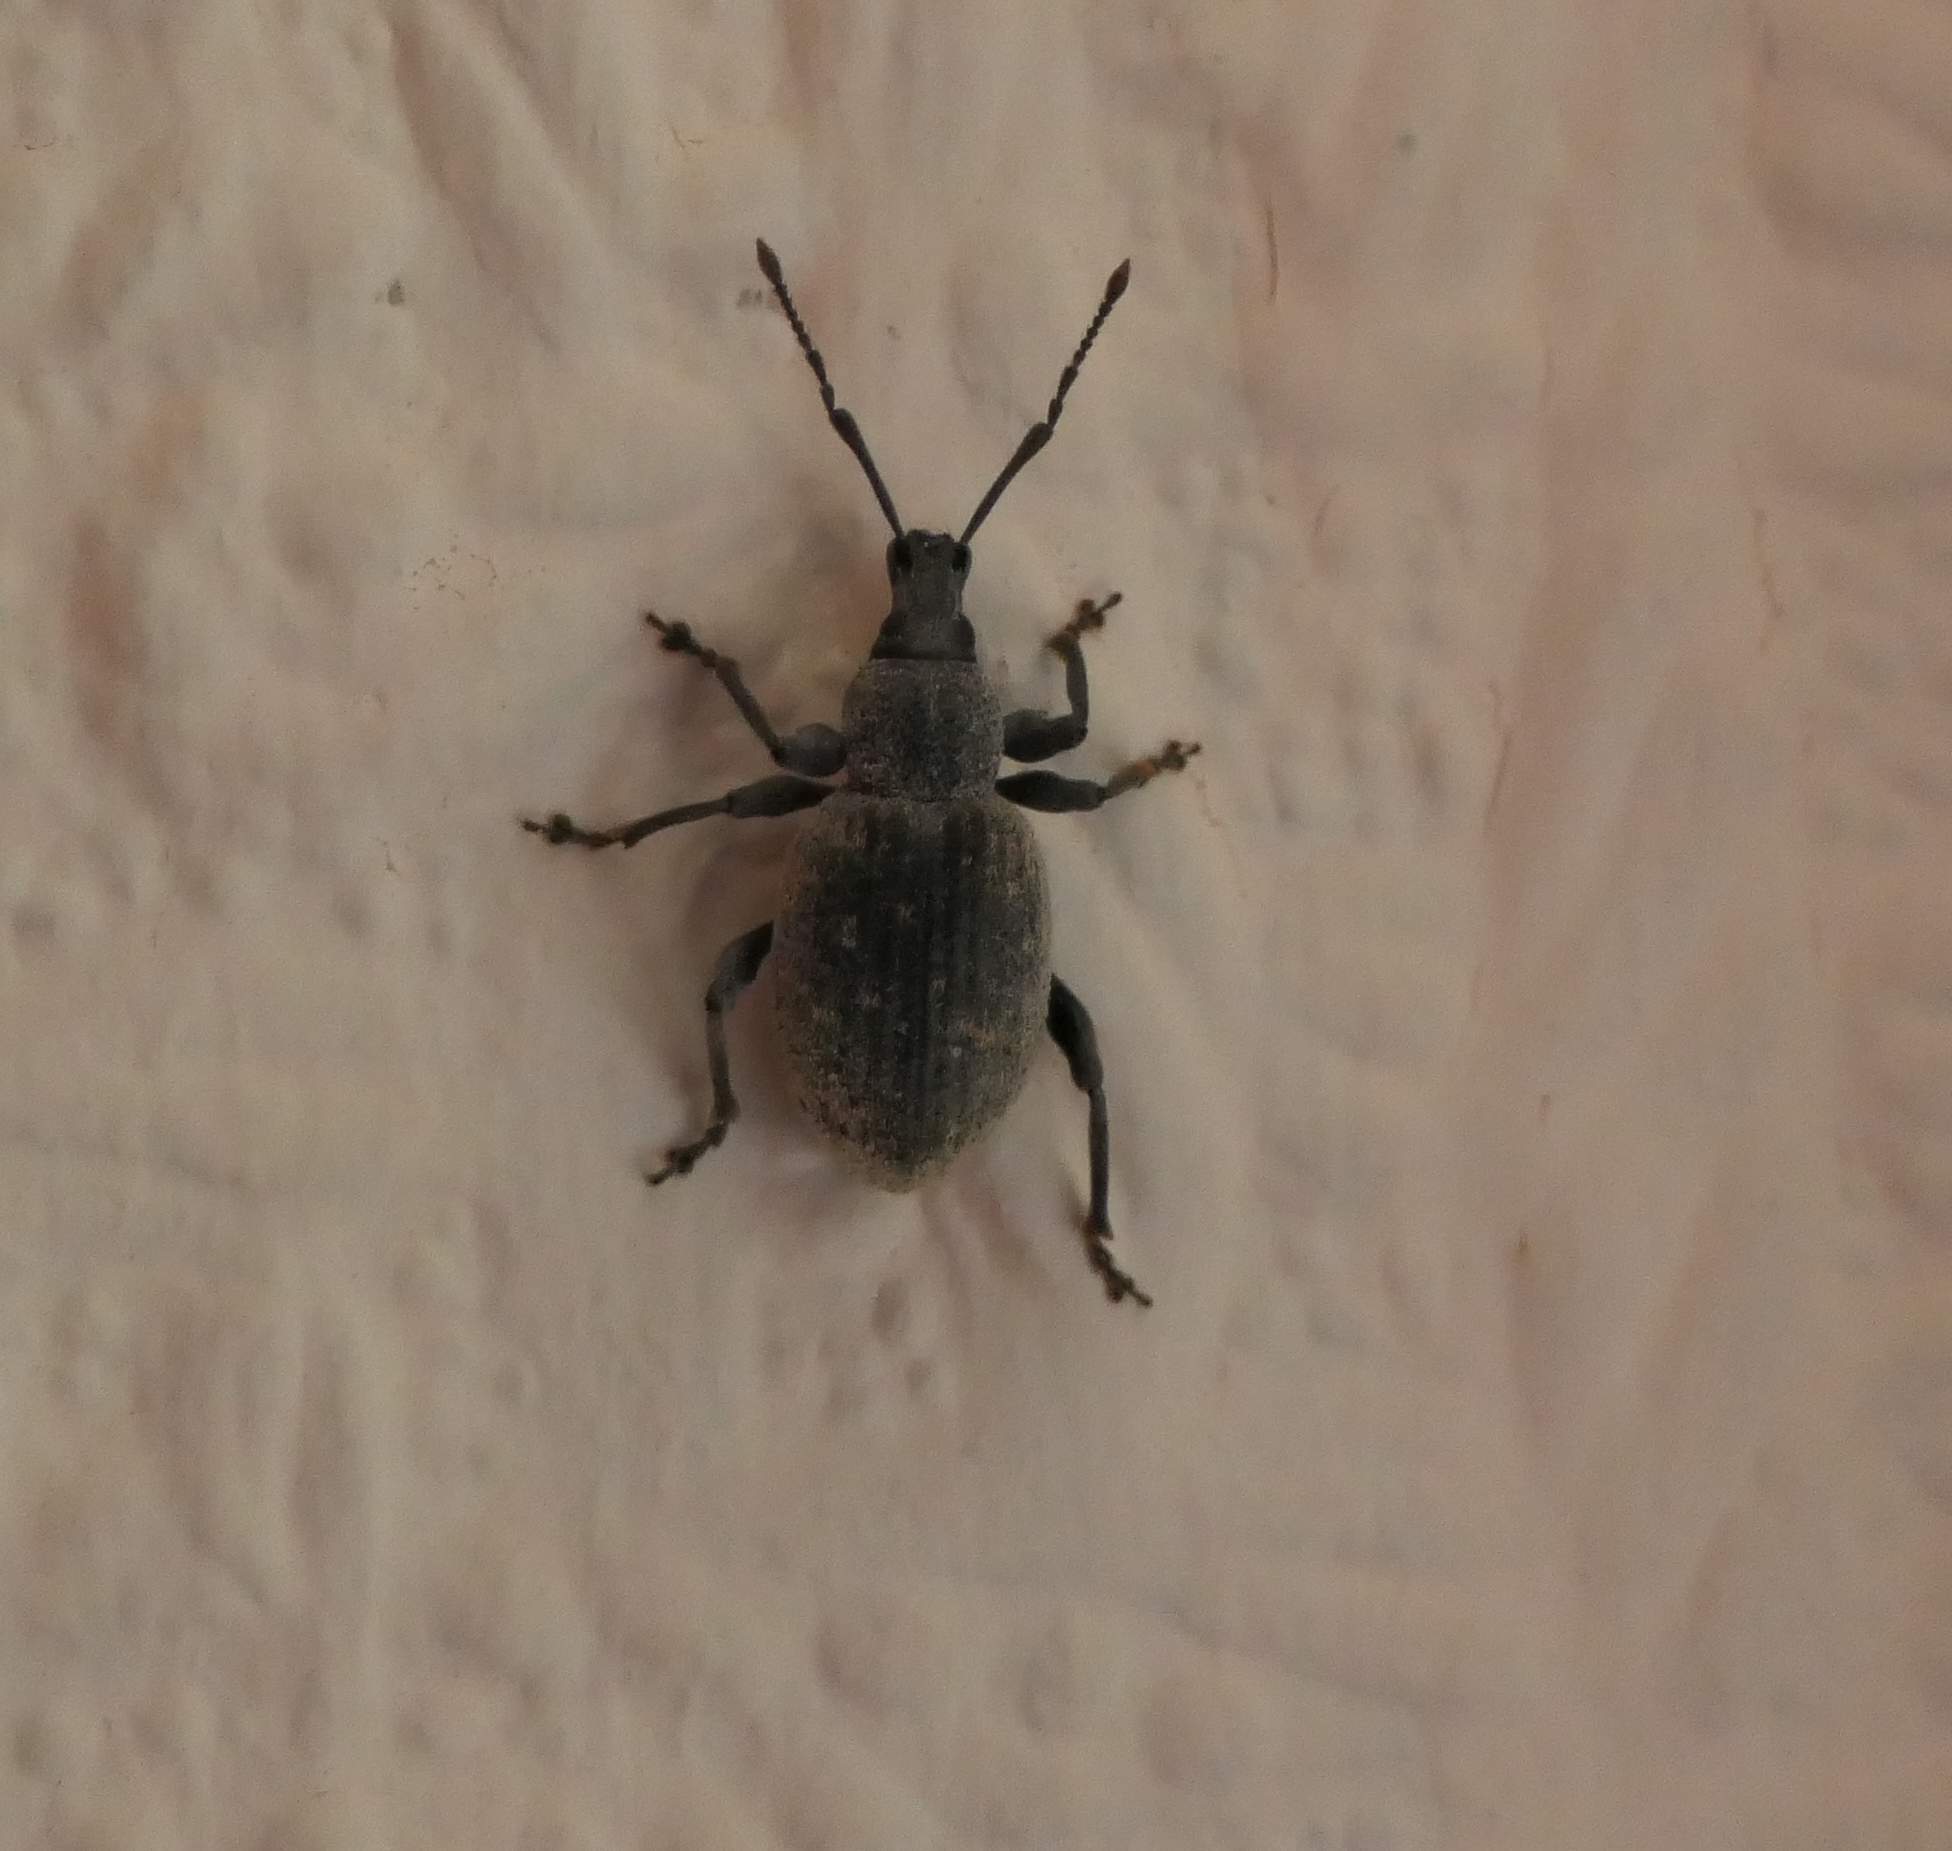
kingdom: Animalia
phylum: Arthropoda
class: Insecta
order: Coleoptera
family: Curculionidae
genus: Otiorhynchus
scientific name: Otiorhynchus sulcatus
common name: Black vine weevil
